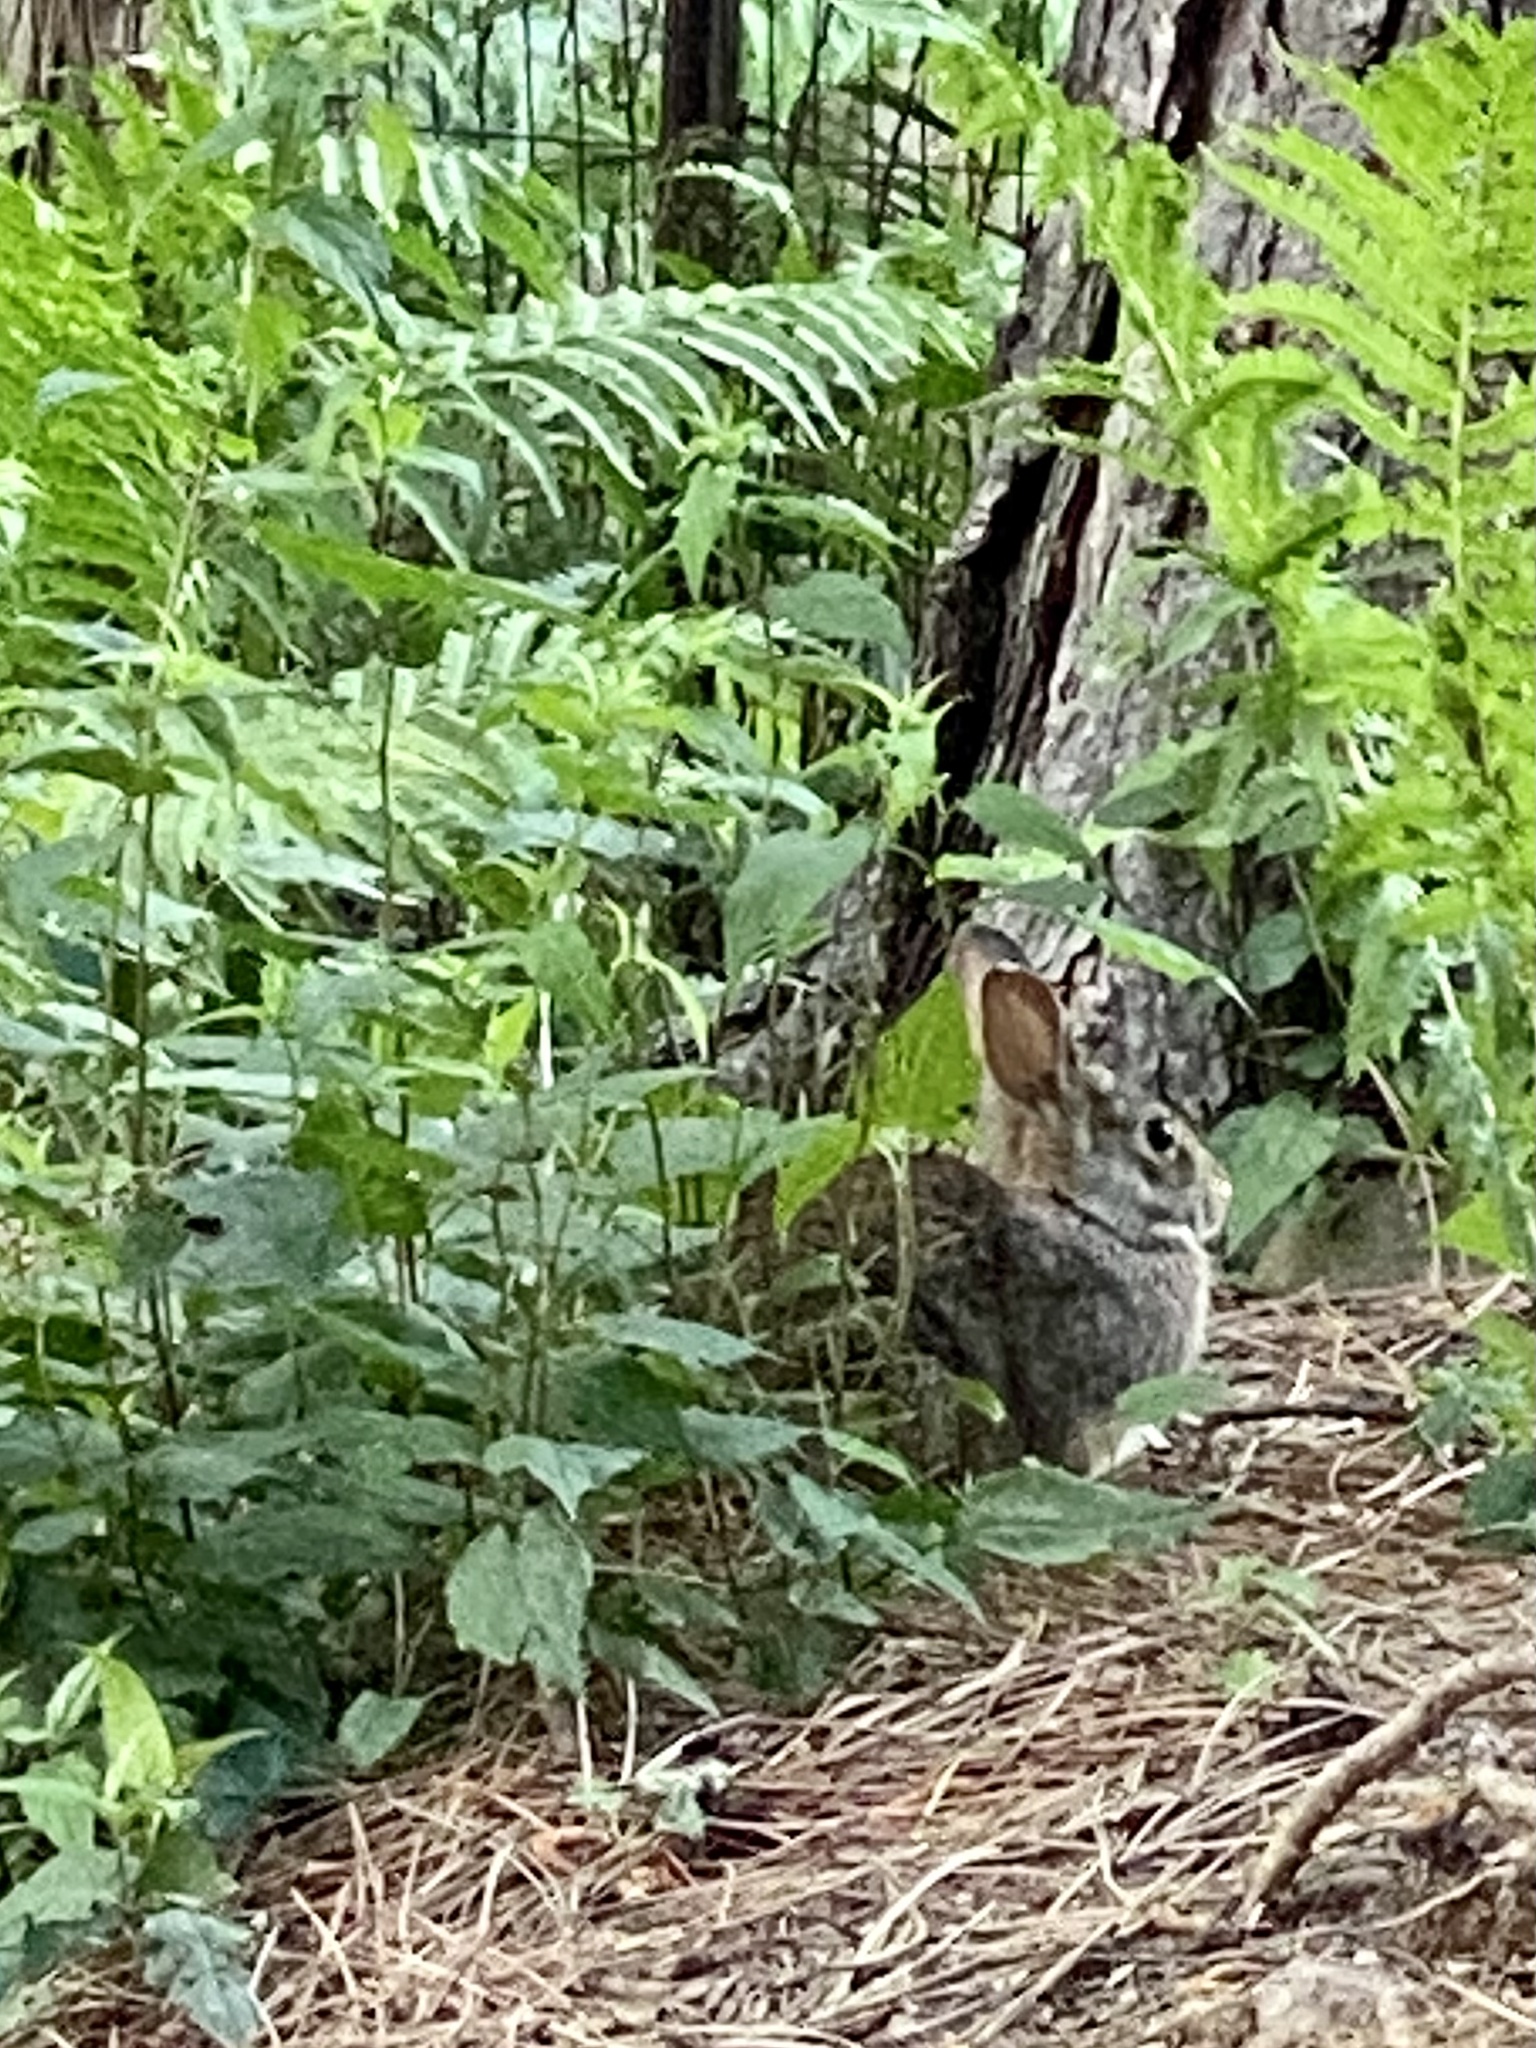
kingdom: Animalia
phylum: Chordata
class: Mammalia
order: Lagomorpha
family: Leporidae
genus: Sylvilagus
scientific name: Sylvilagus floridanus
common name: Eastern cottontail
